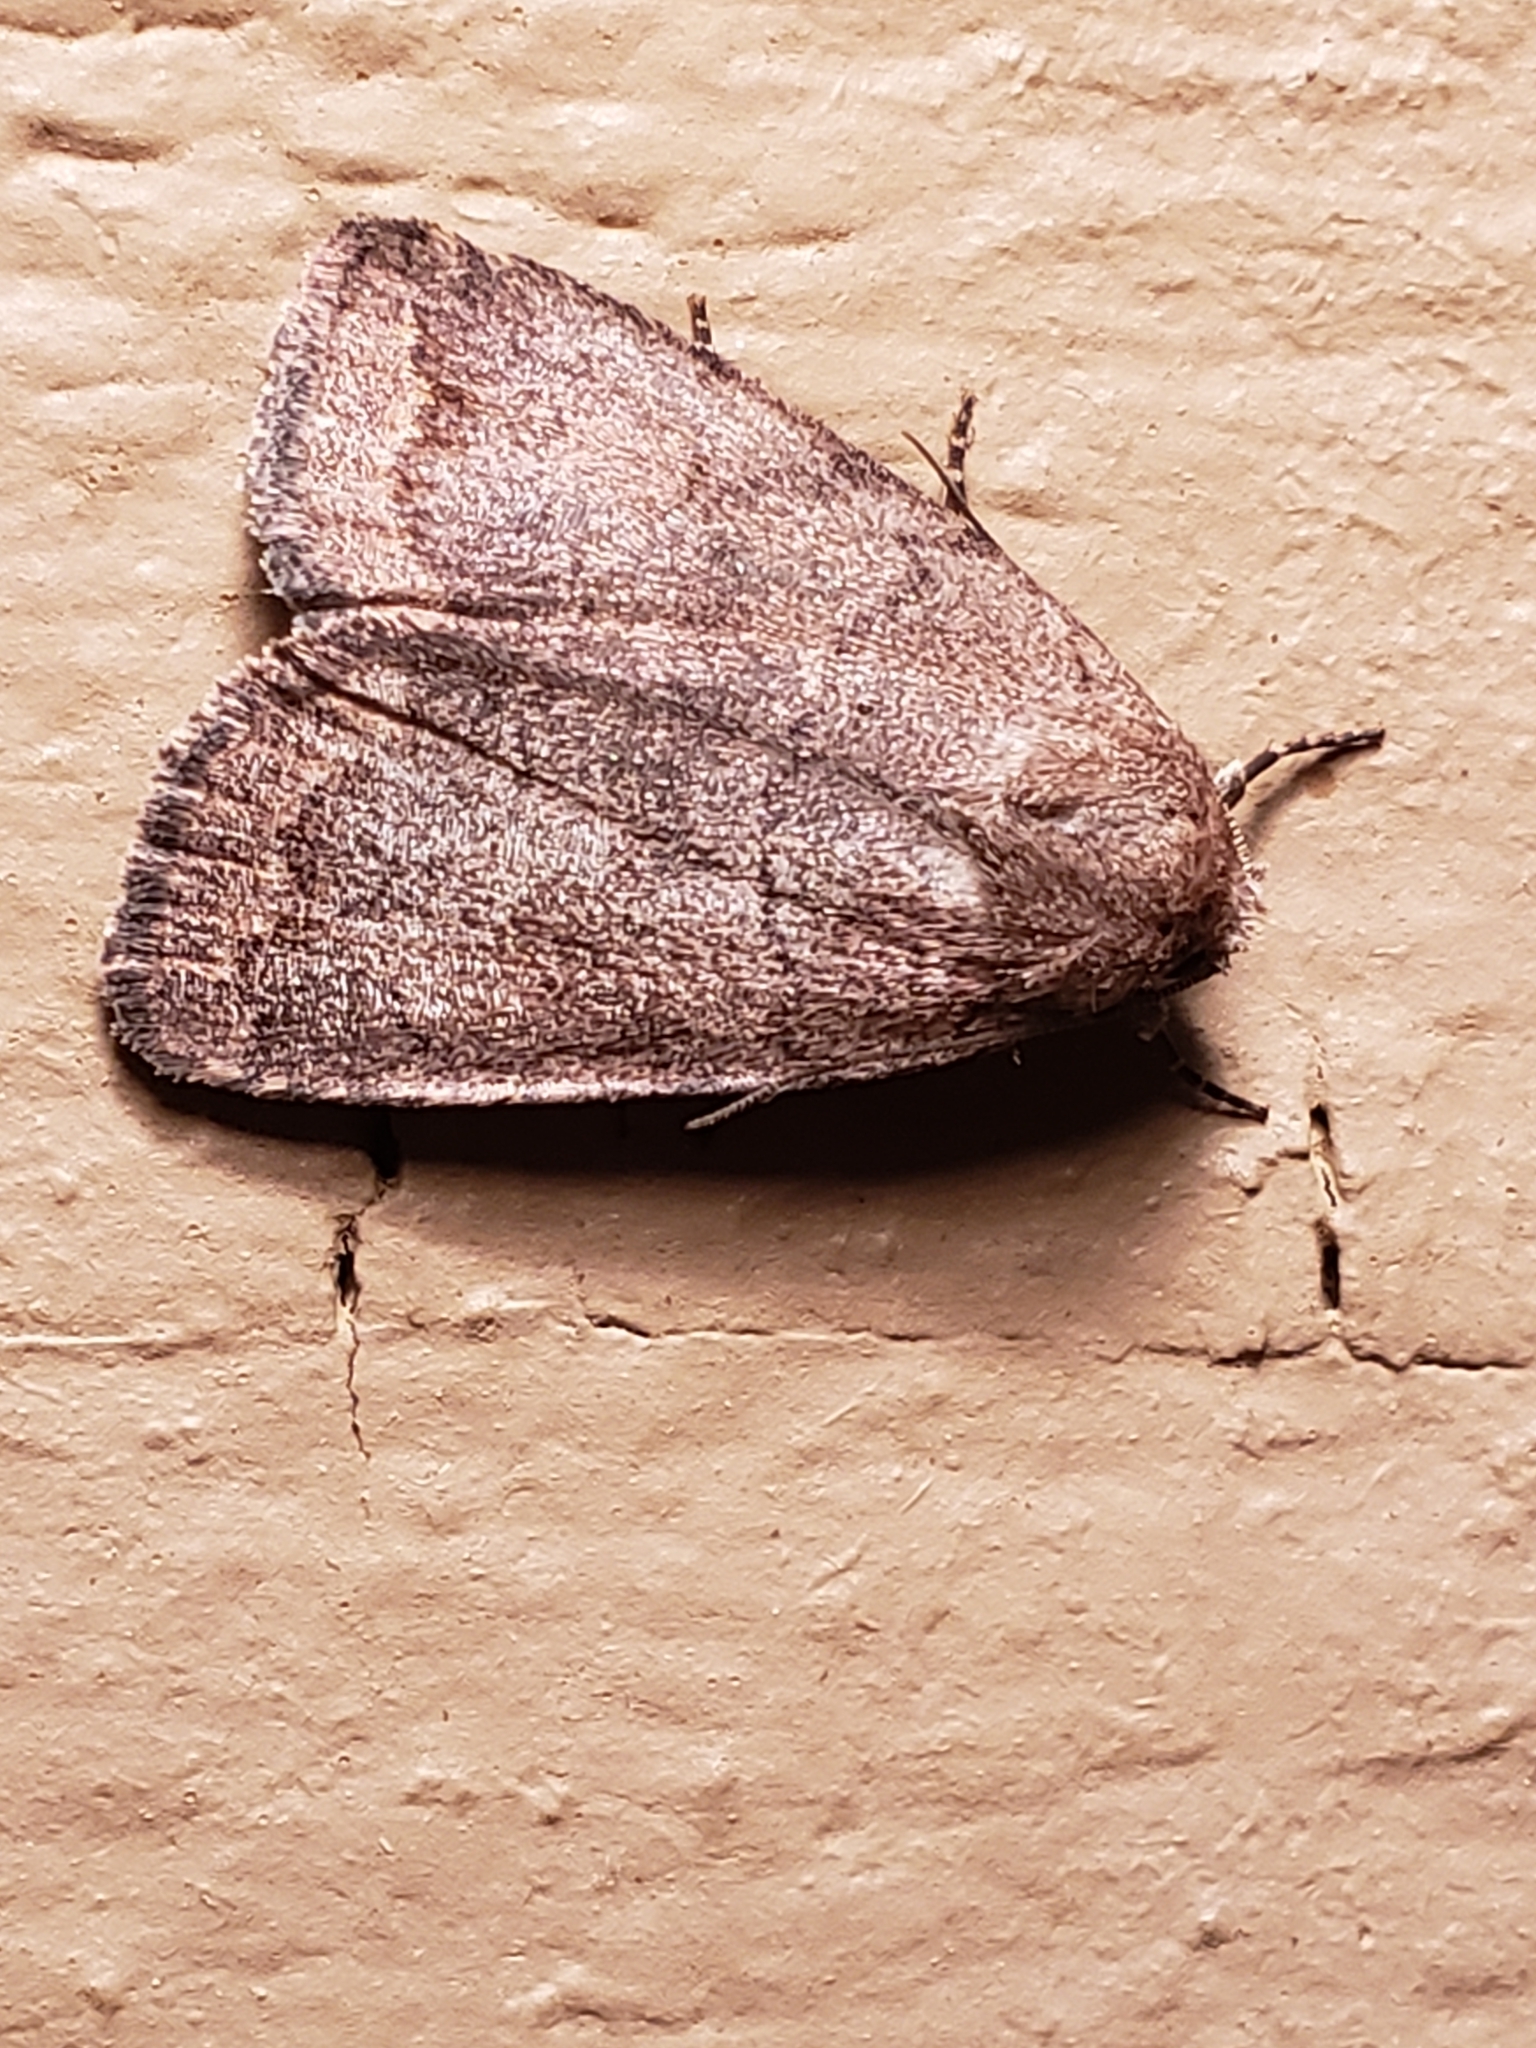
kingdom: Animalia
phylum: Arthropoda
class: Insecta
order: Lepidoptera
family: Noctuidae
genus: Athetis
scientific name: Athetis tarda
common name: Slowpoke moth
